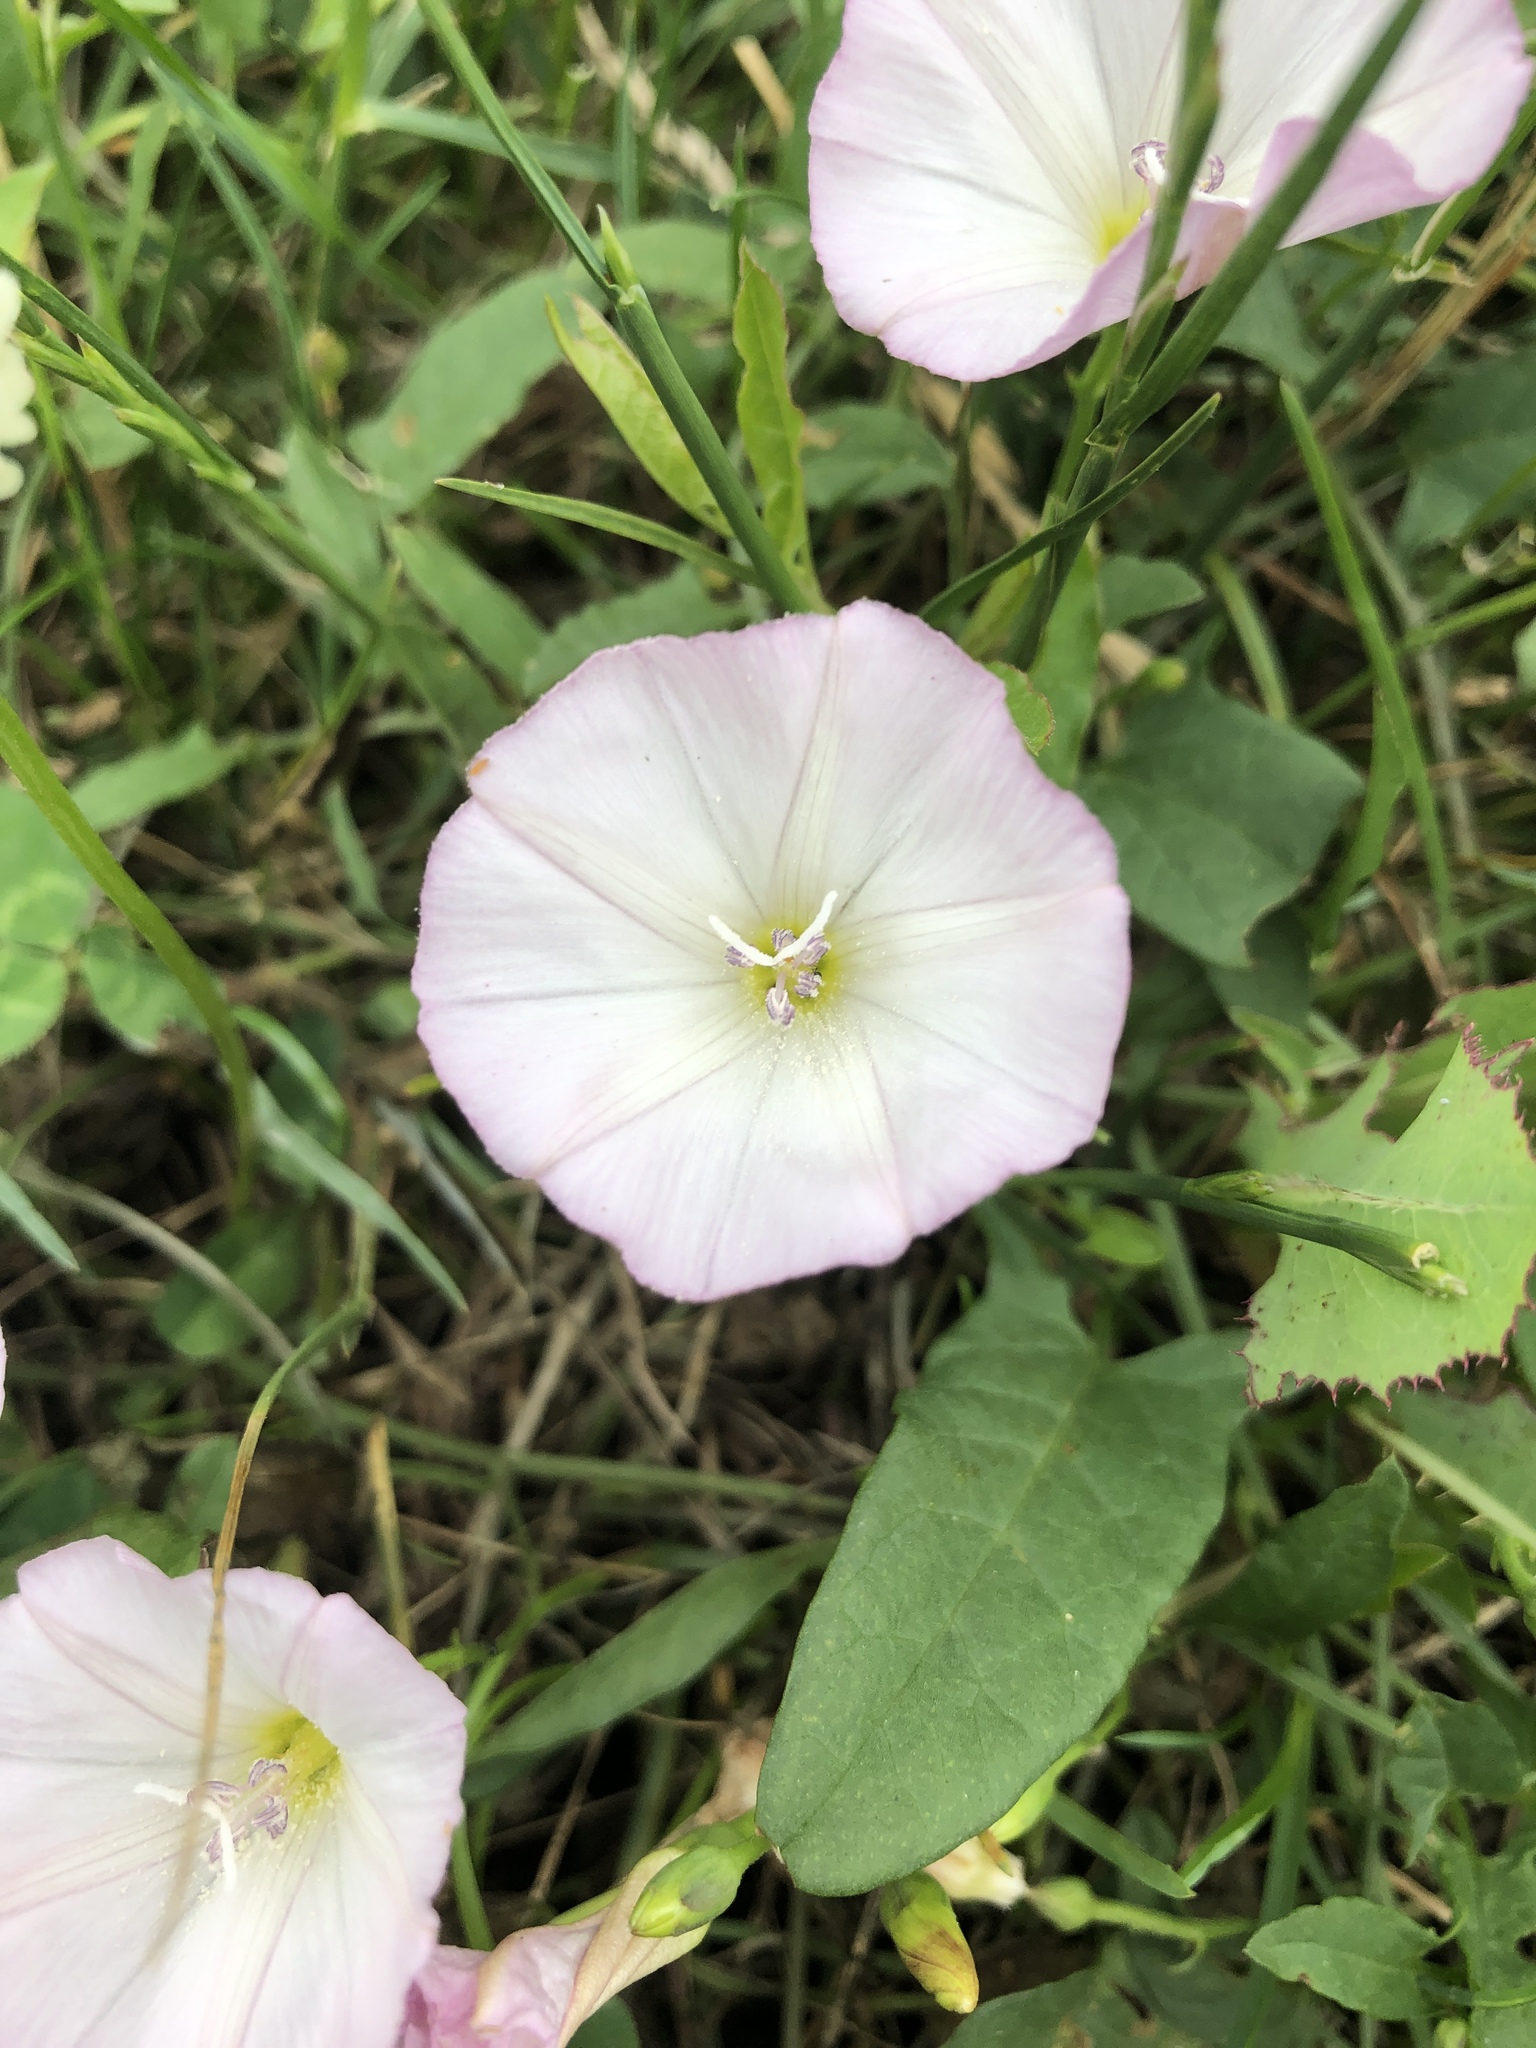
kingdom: Plantae
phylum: Tracheophyta
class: Magnoliopsida
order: Solanales
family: Convolvulaceae
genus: Convolvulus
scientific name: Convolvulus arvensis
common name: Field bindweed
